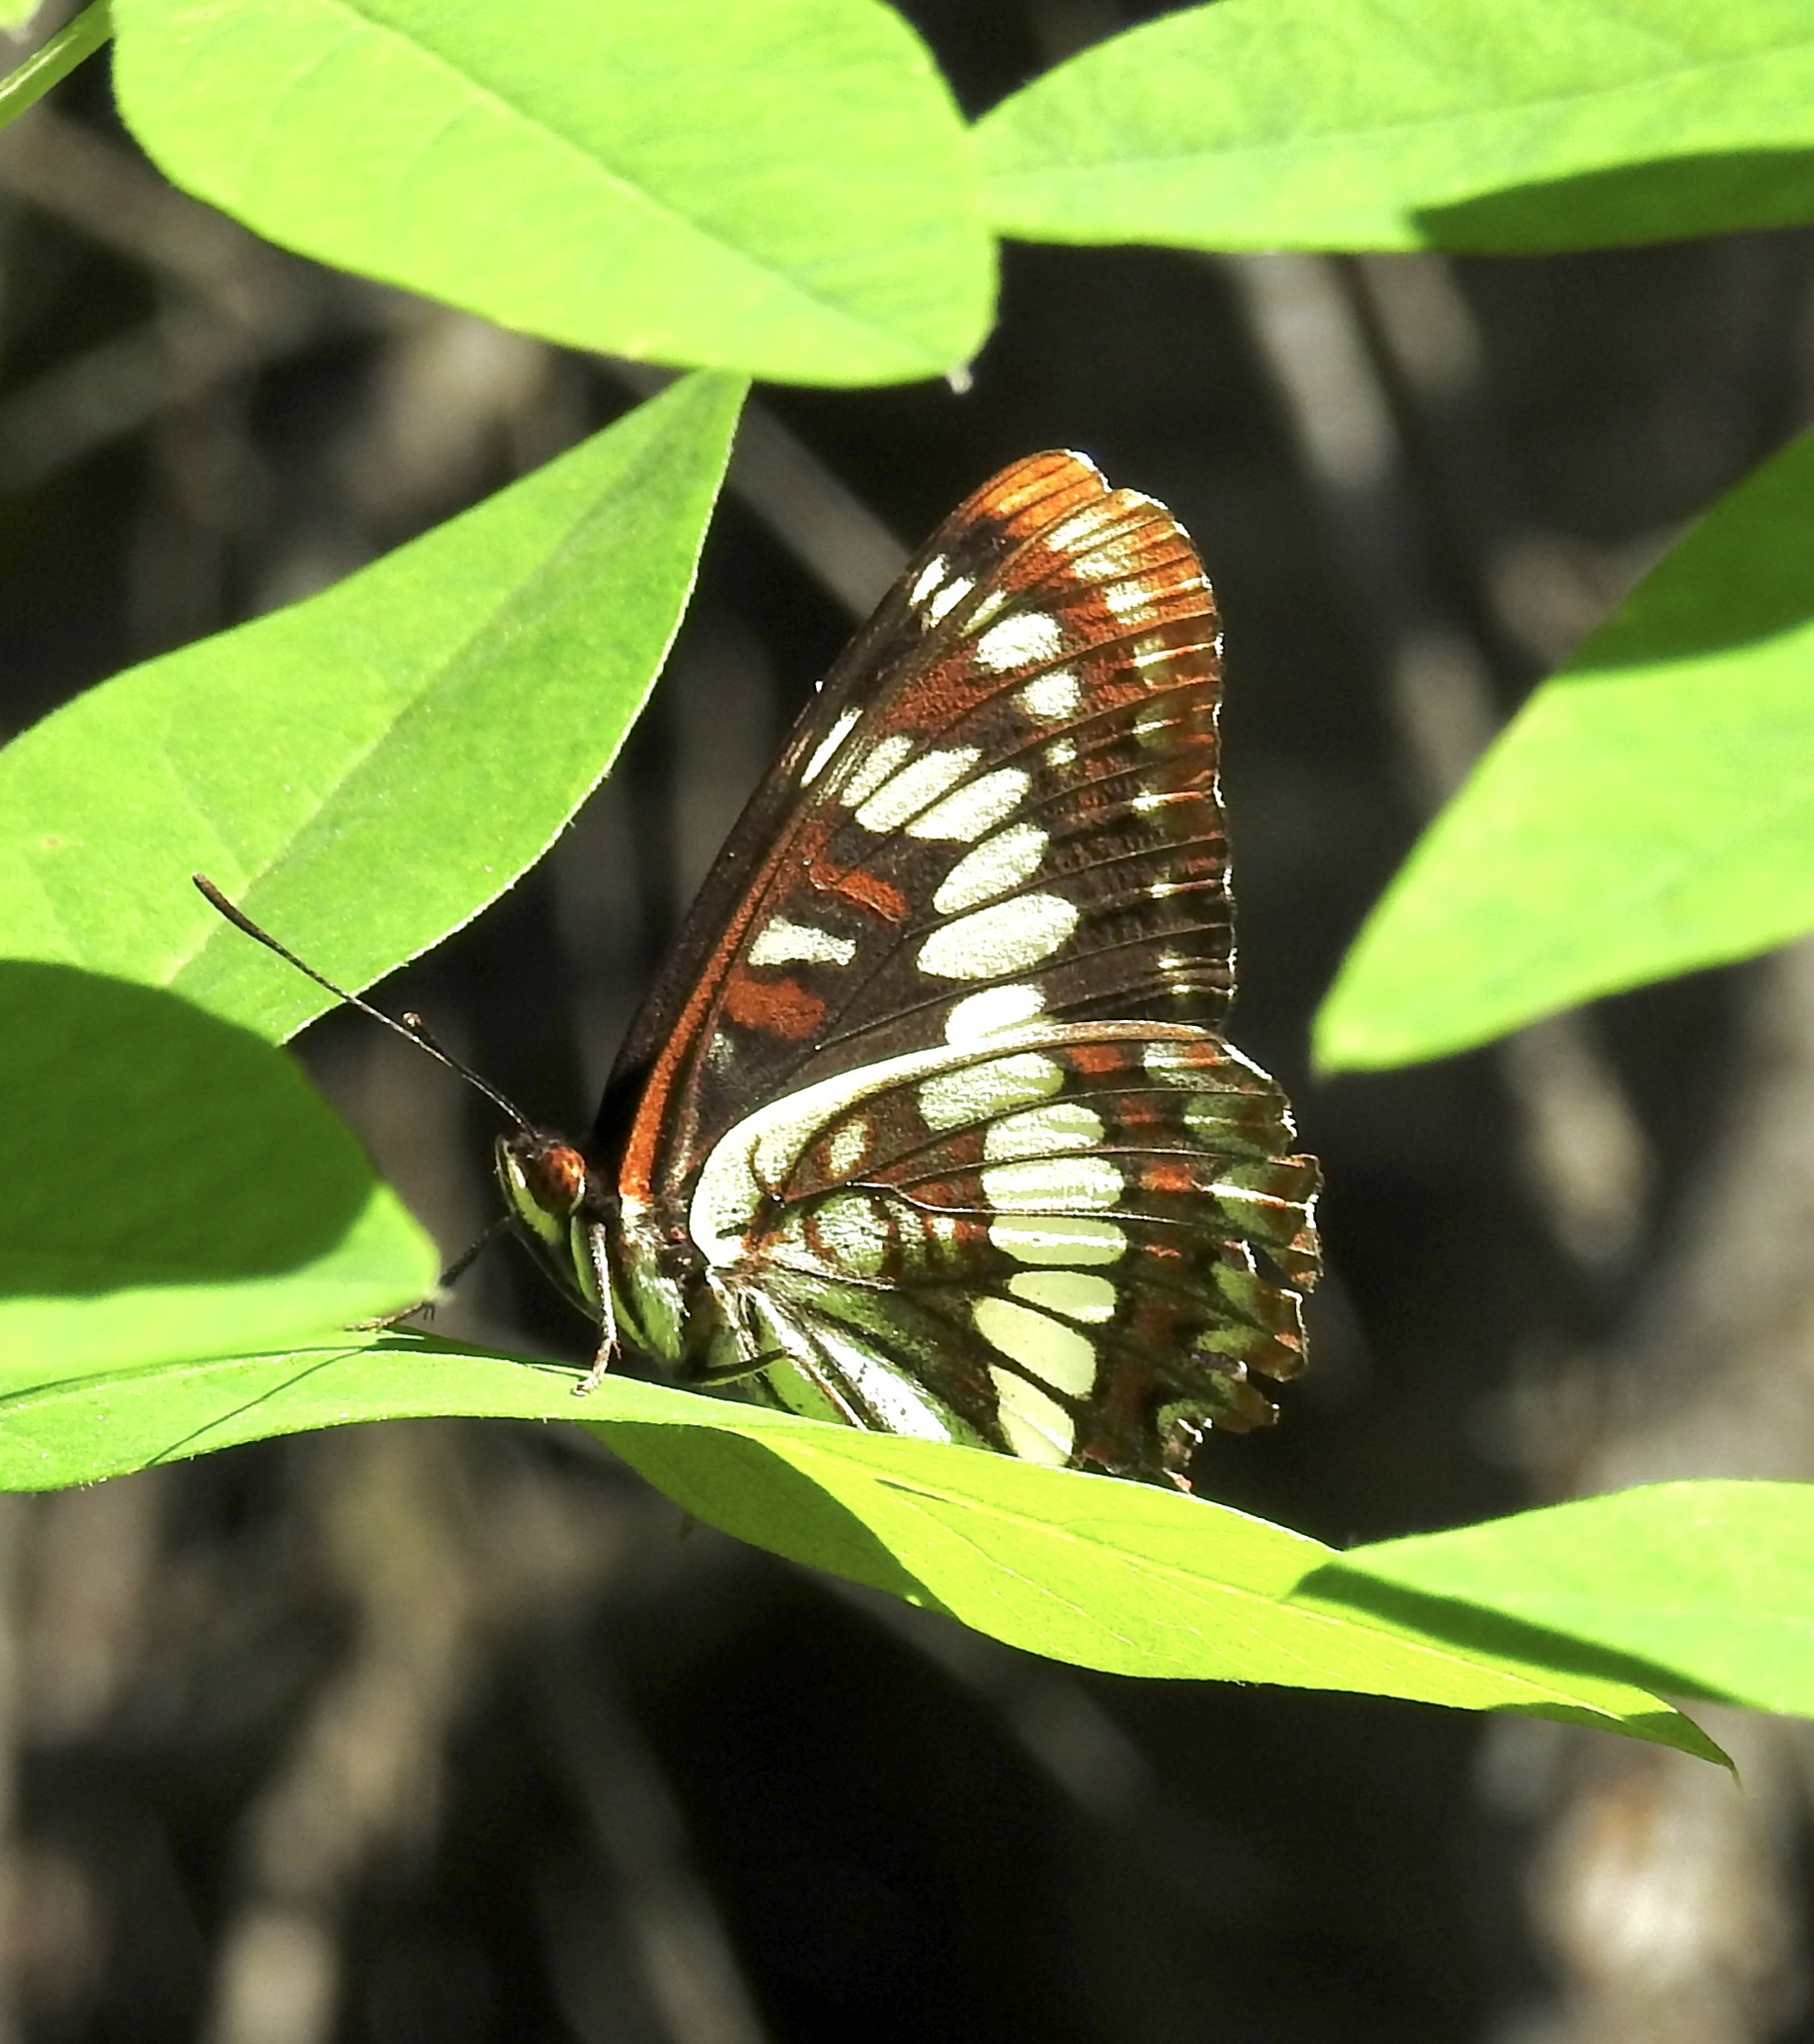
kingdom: Animalia
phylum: Arthropoda
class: Insecta
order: Lepidoptera
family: Nymphalidae
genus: Limenitis
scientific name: Limenitis lorquini
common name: Lorquin's admiral
